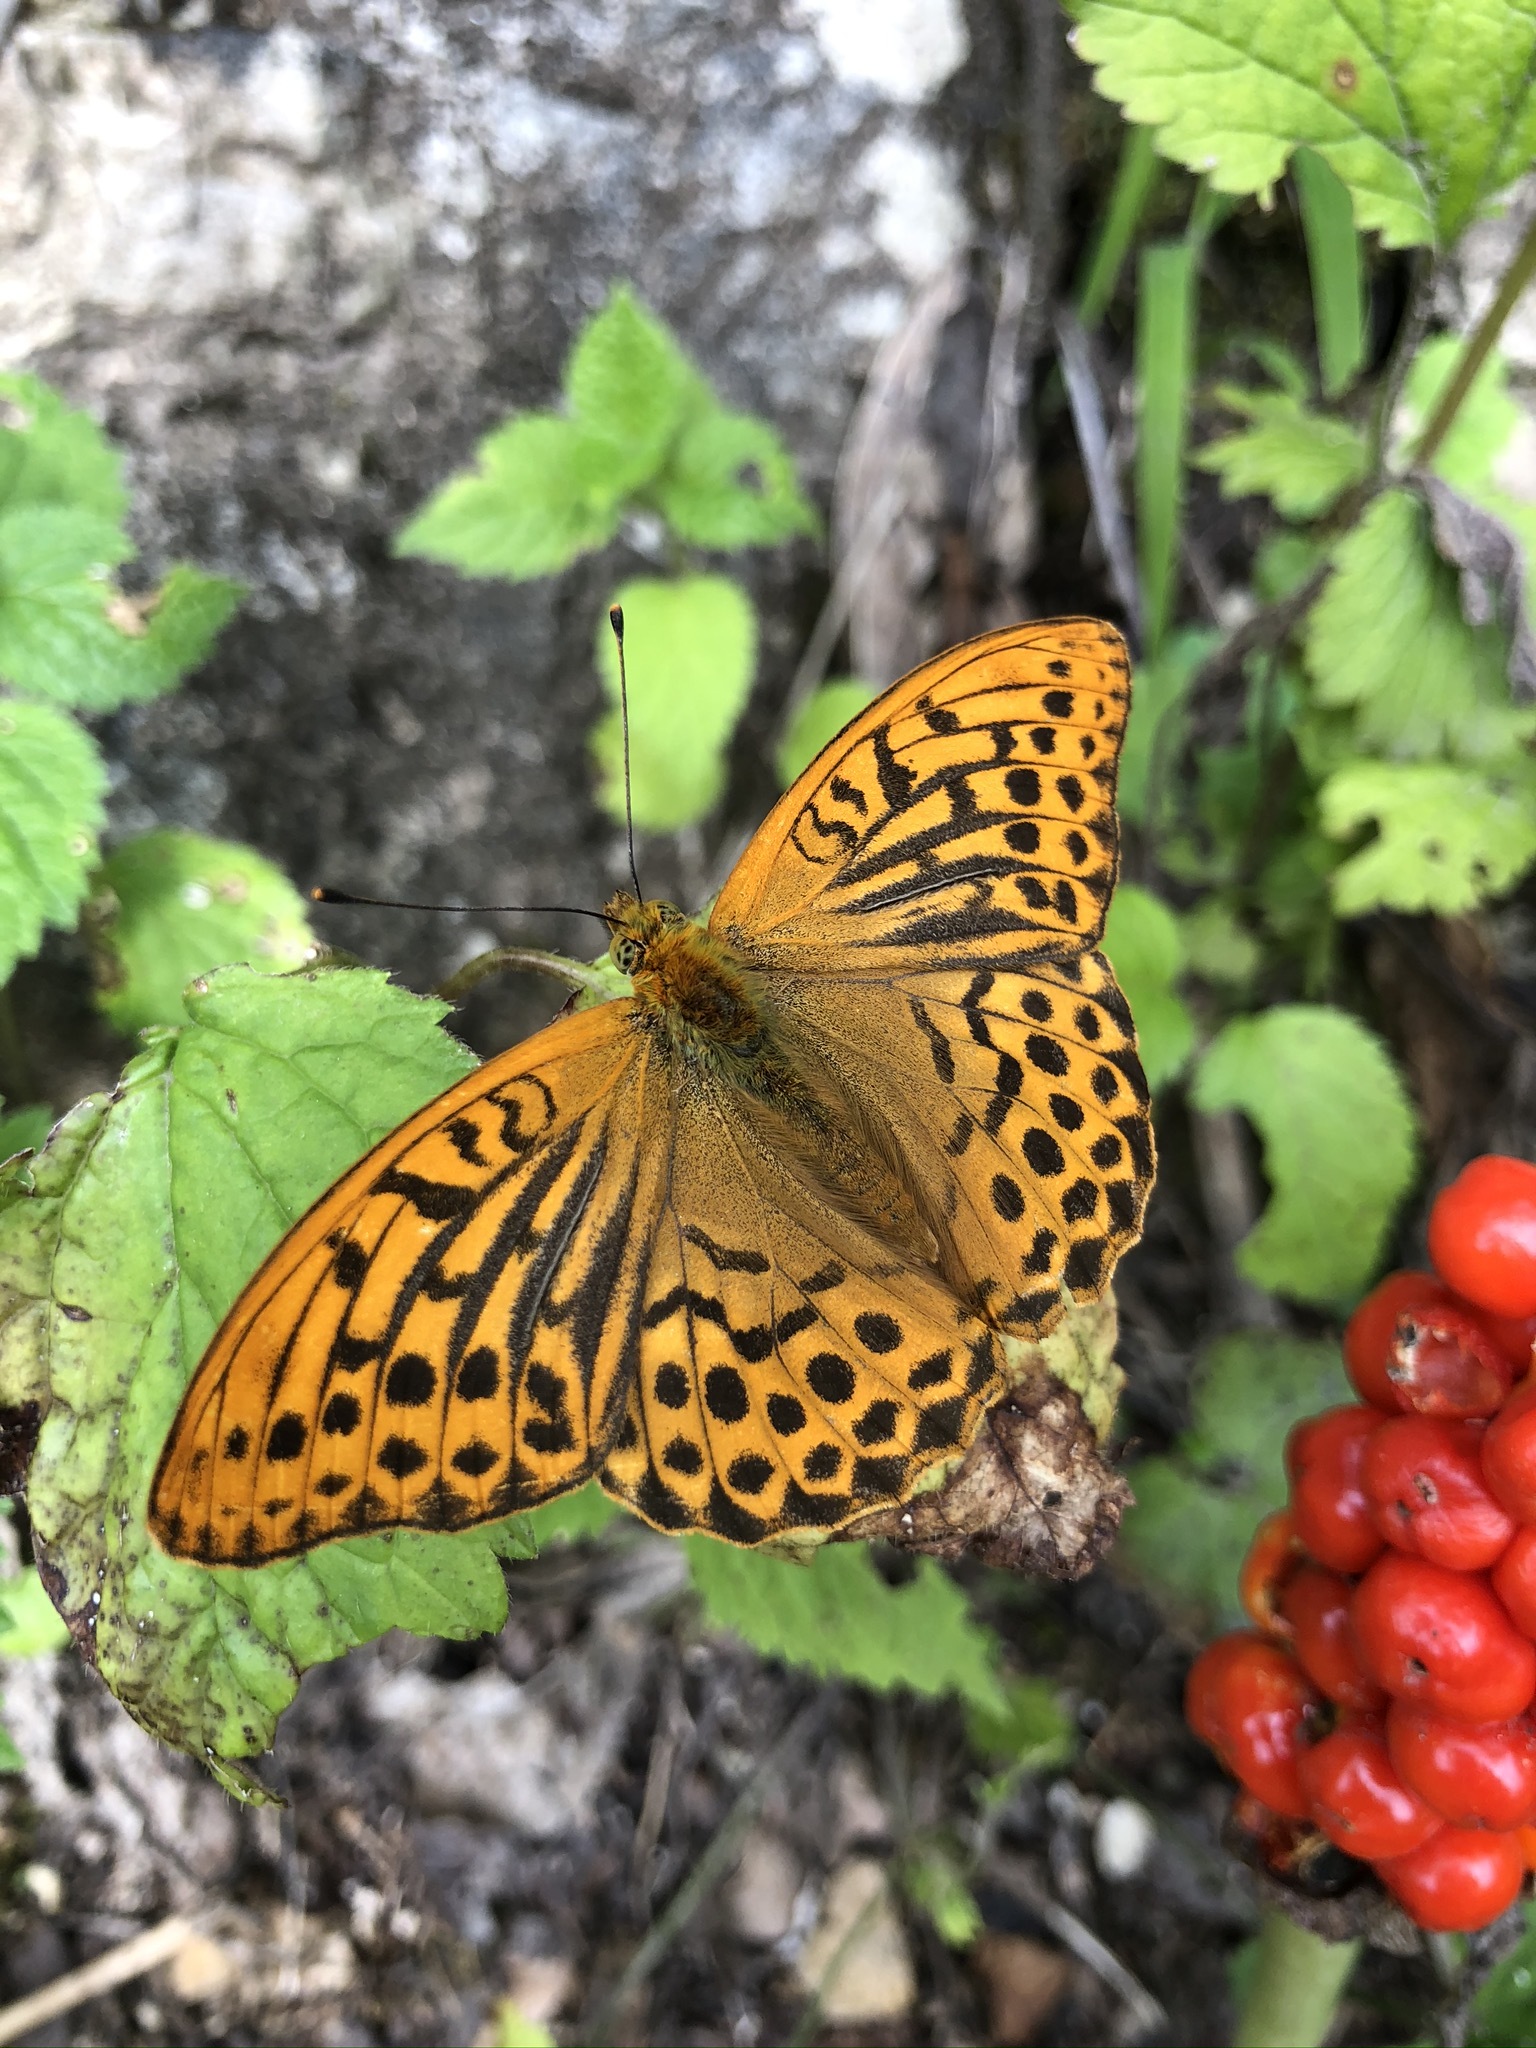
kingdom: Animalia
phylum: Arthropoda
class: Insecta
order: Lepidoptera
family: Nymphalidae
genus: Argynnis
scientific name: Argynnis paphia
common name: Silver-washed fritillary
